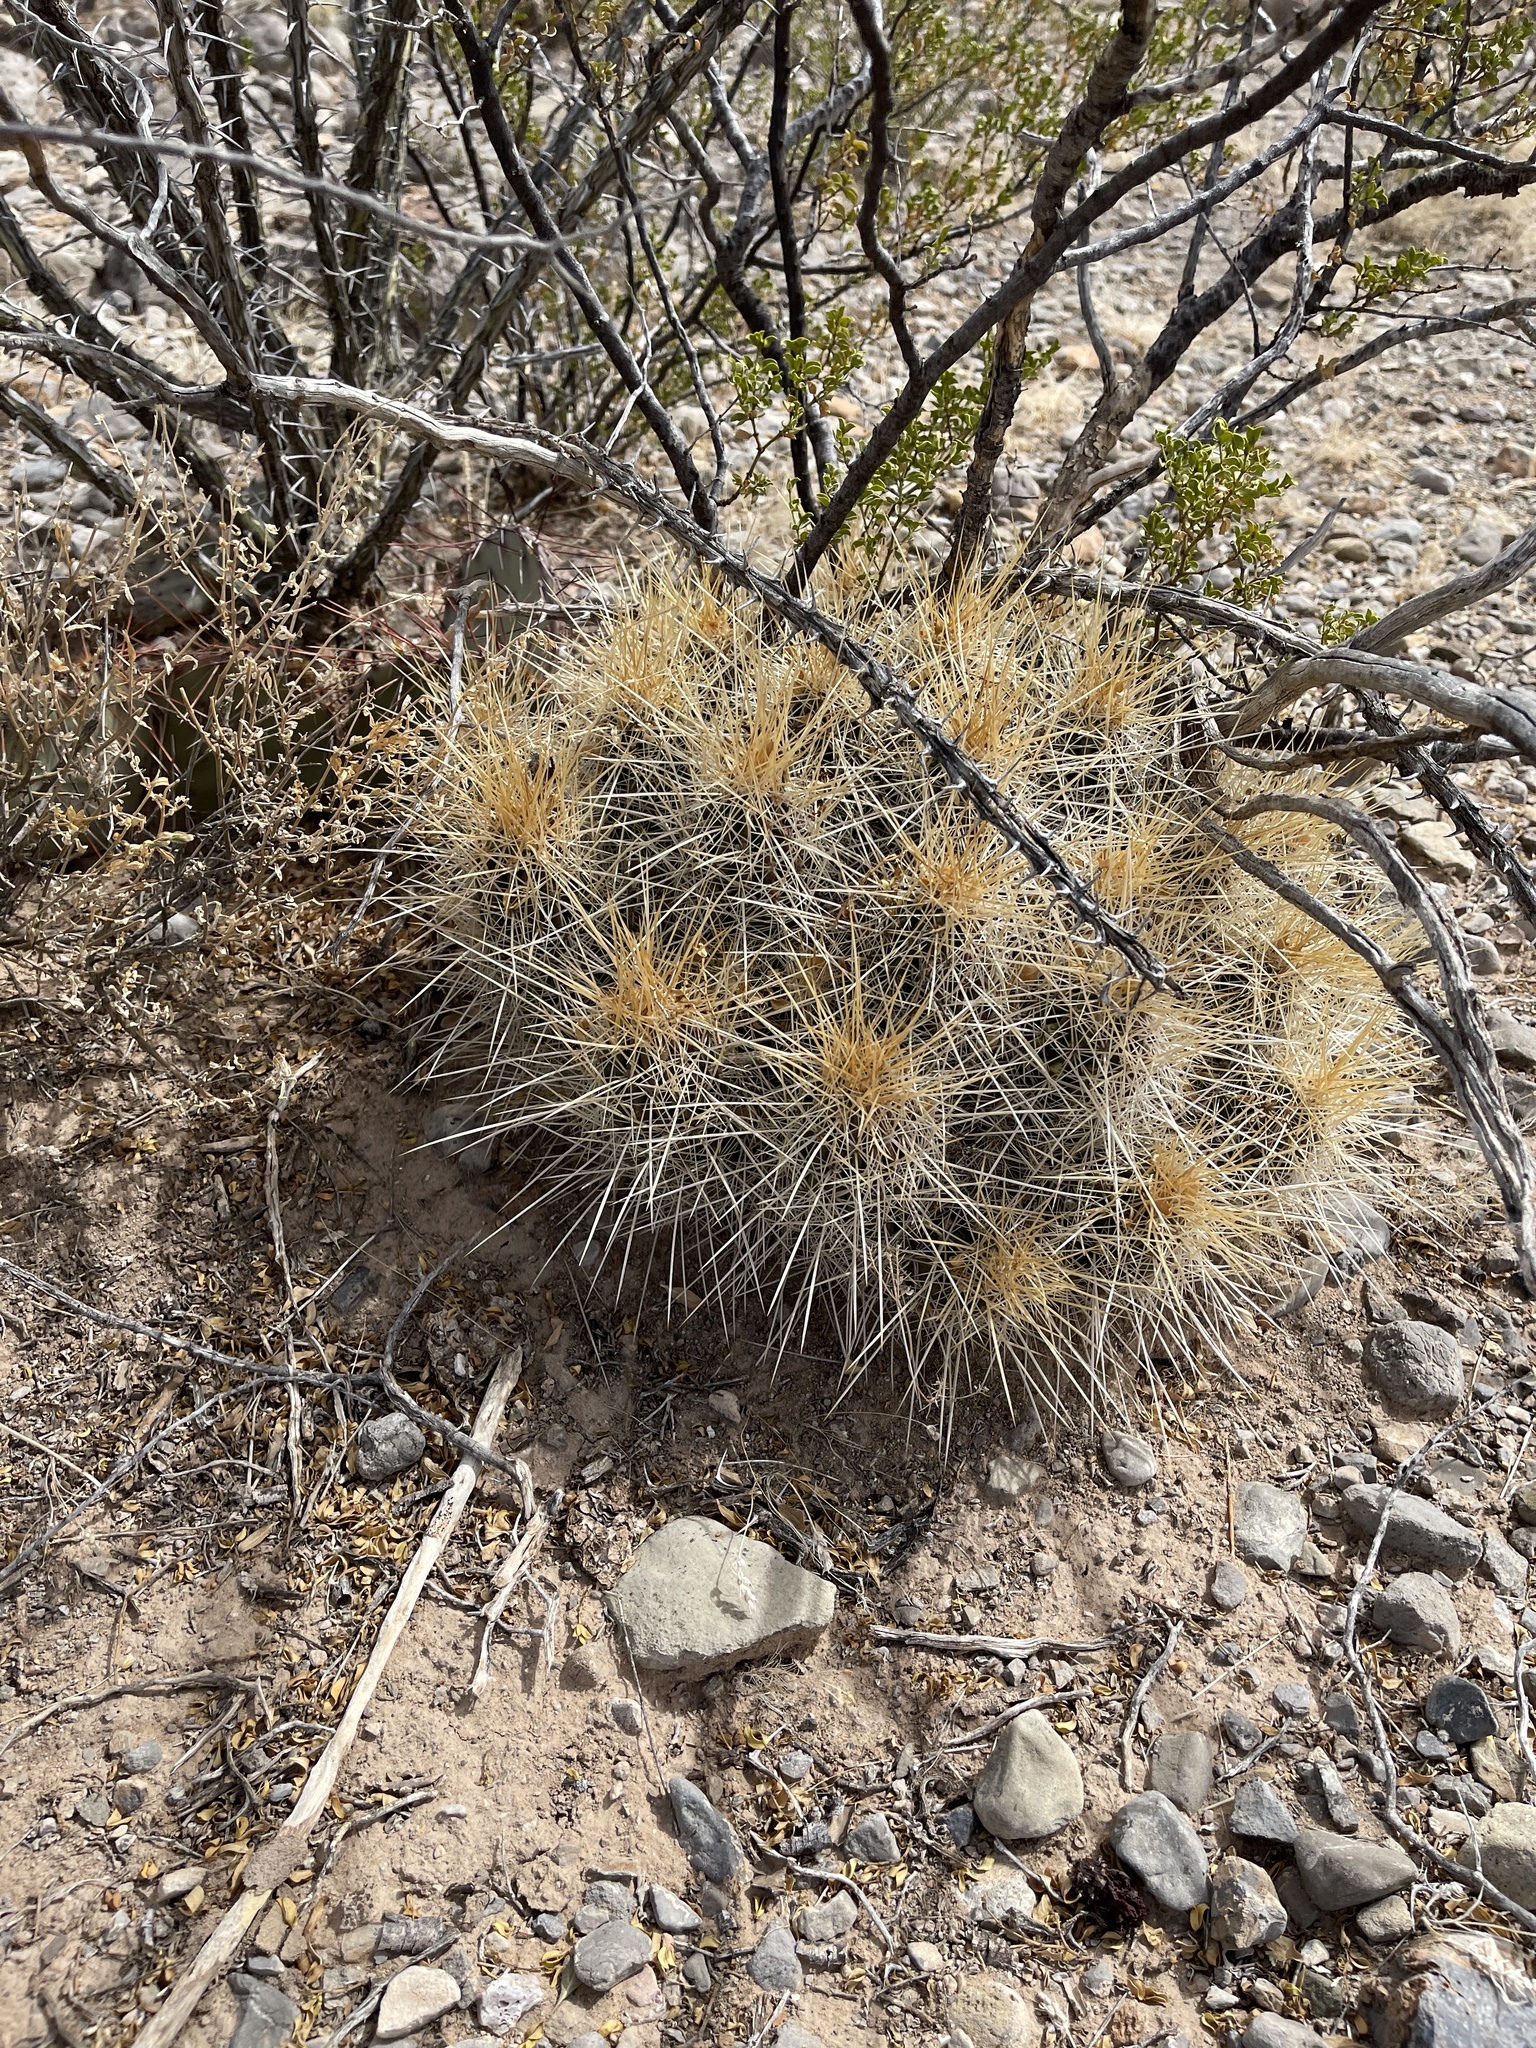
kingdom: Plantae
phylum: Tracheophyta
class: Magnoliopsida
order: Caryophyllales
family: Cactaceae
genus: Echinocereus
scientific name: Echinocereus stramineus
